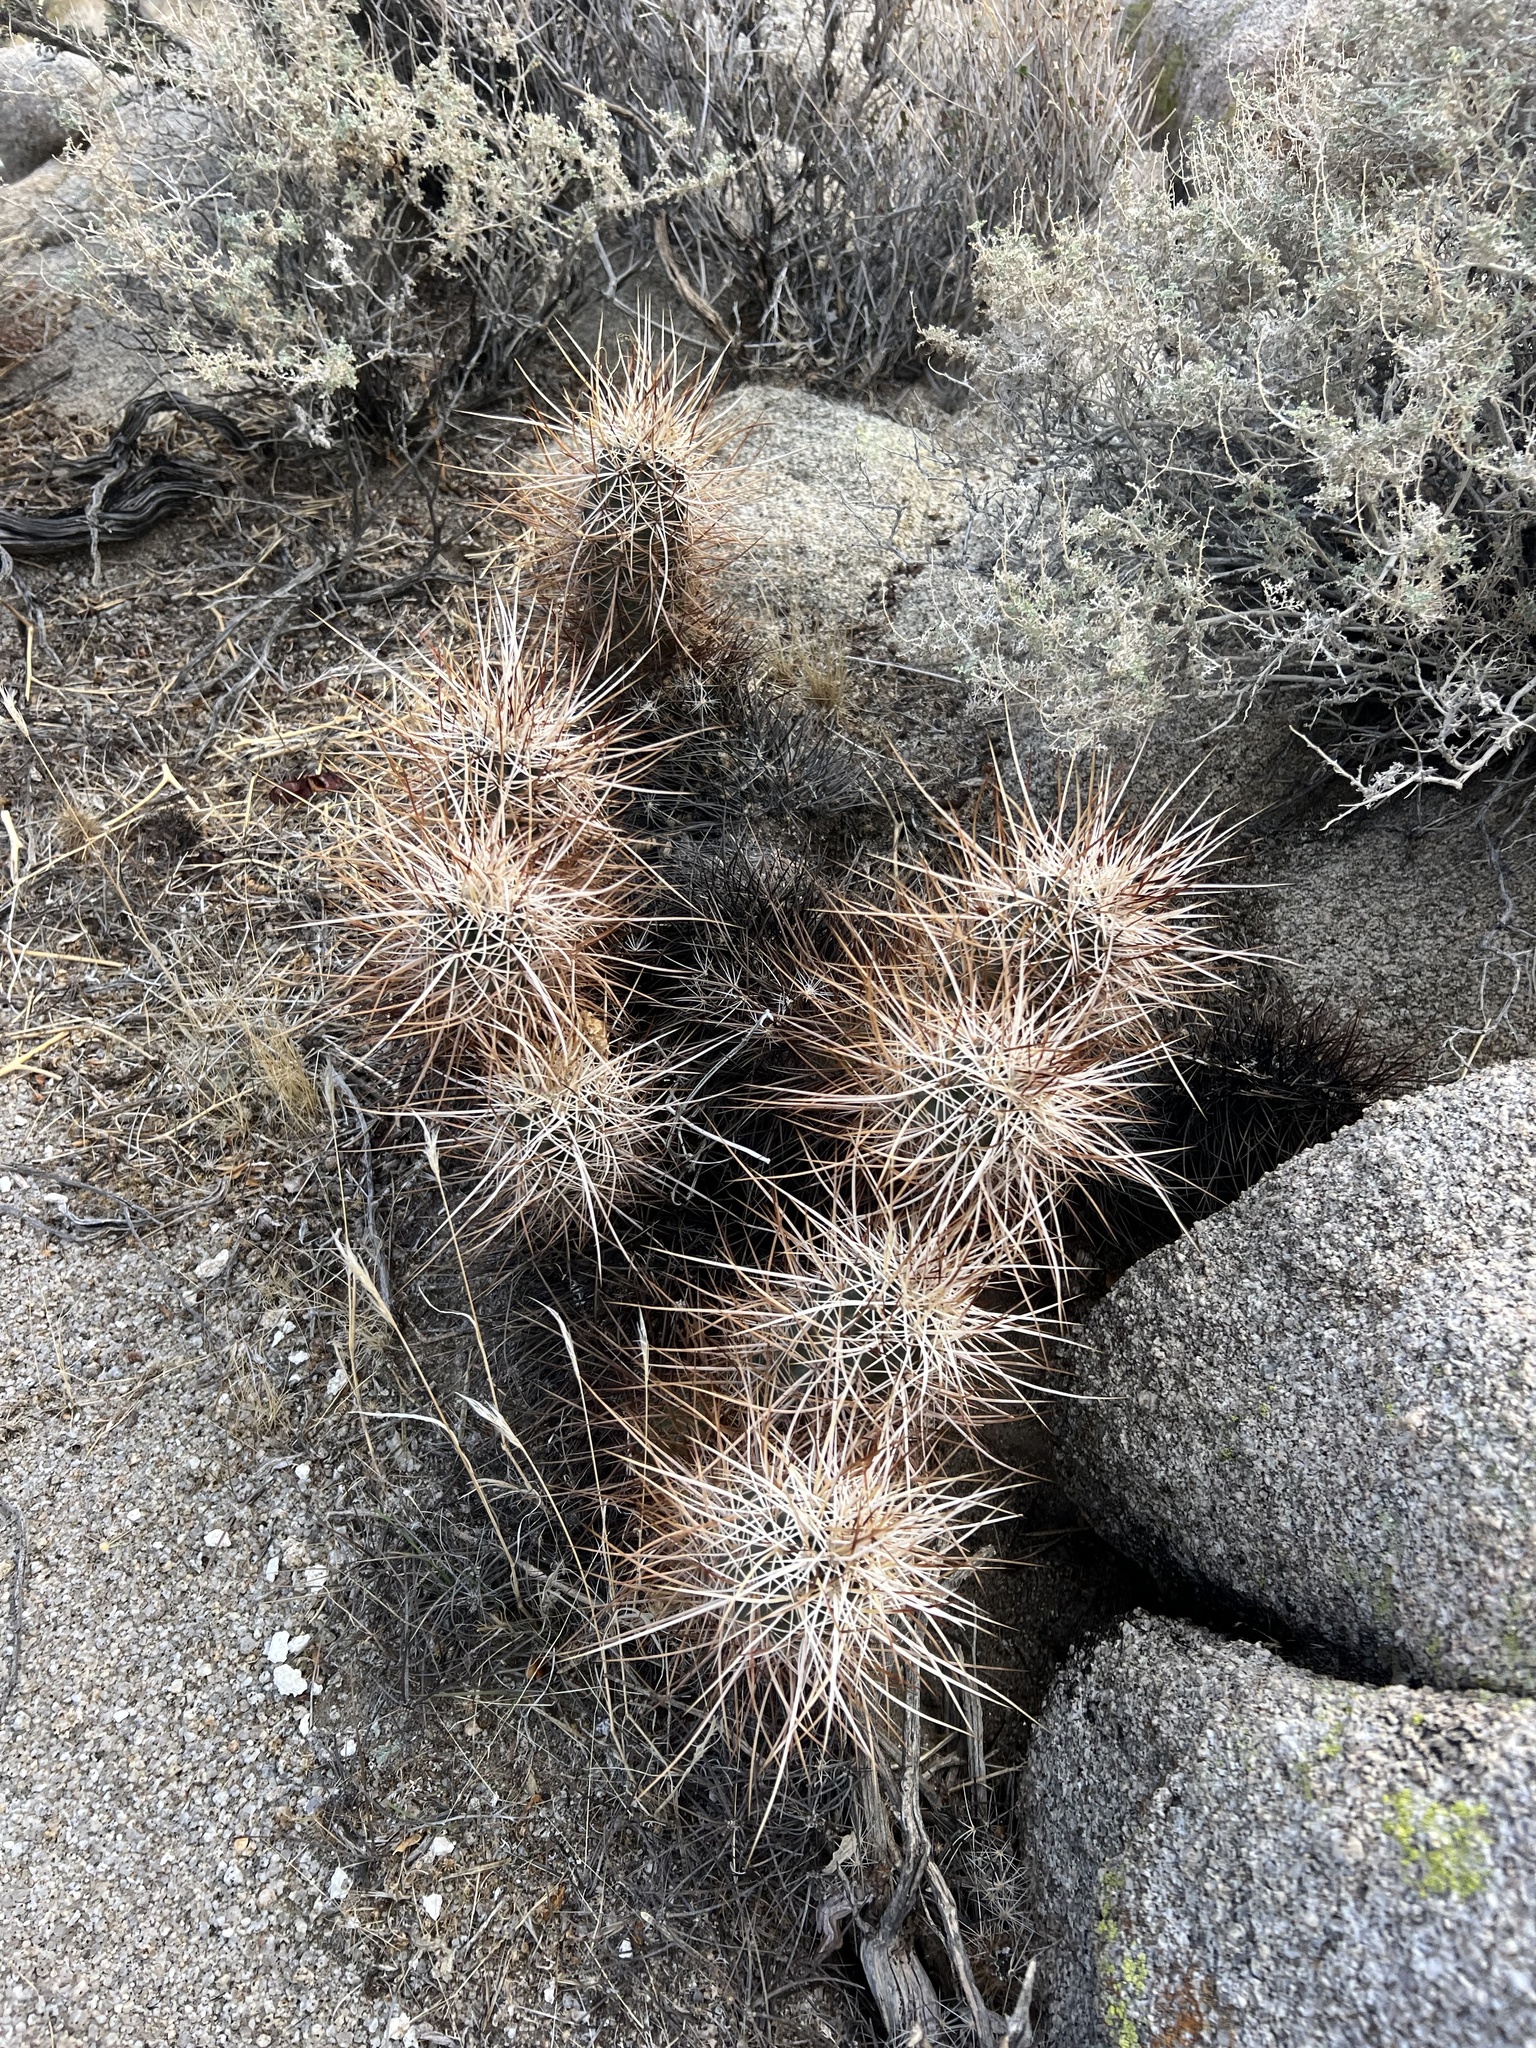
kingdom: Plantae
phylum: Tracheophyta
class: Magnoliopsida
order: Caryophyllales
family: Cactaceae
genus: Echinocereus
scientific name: Echinocereus engelmannii
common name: Engelmann's hedgehog cactus
